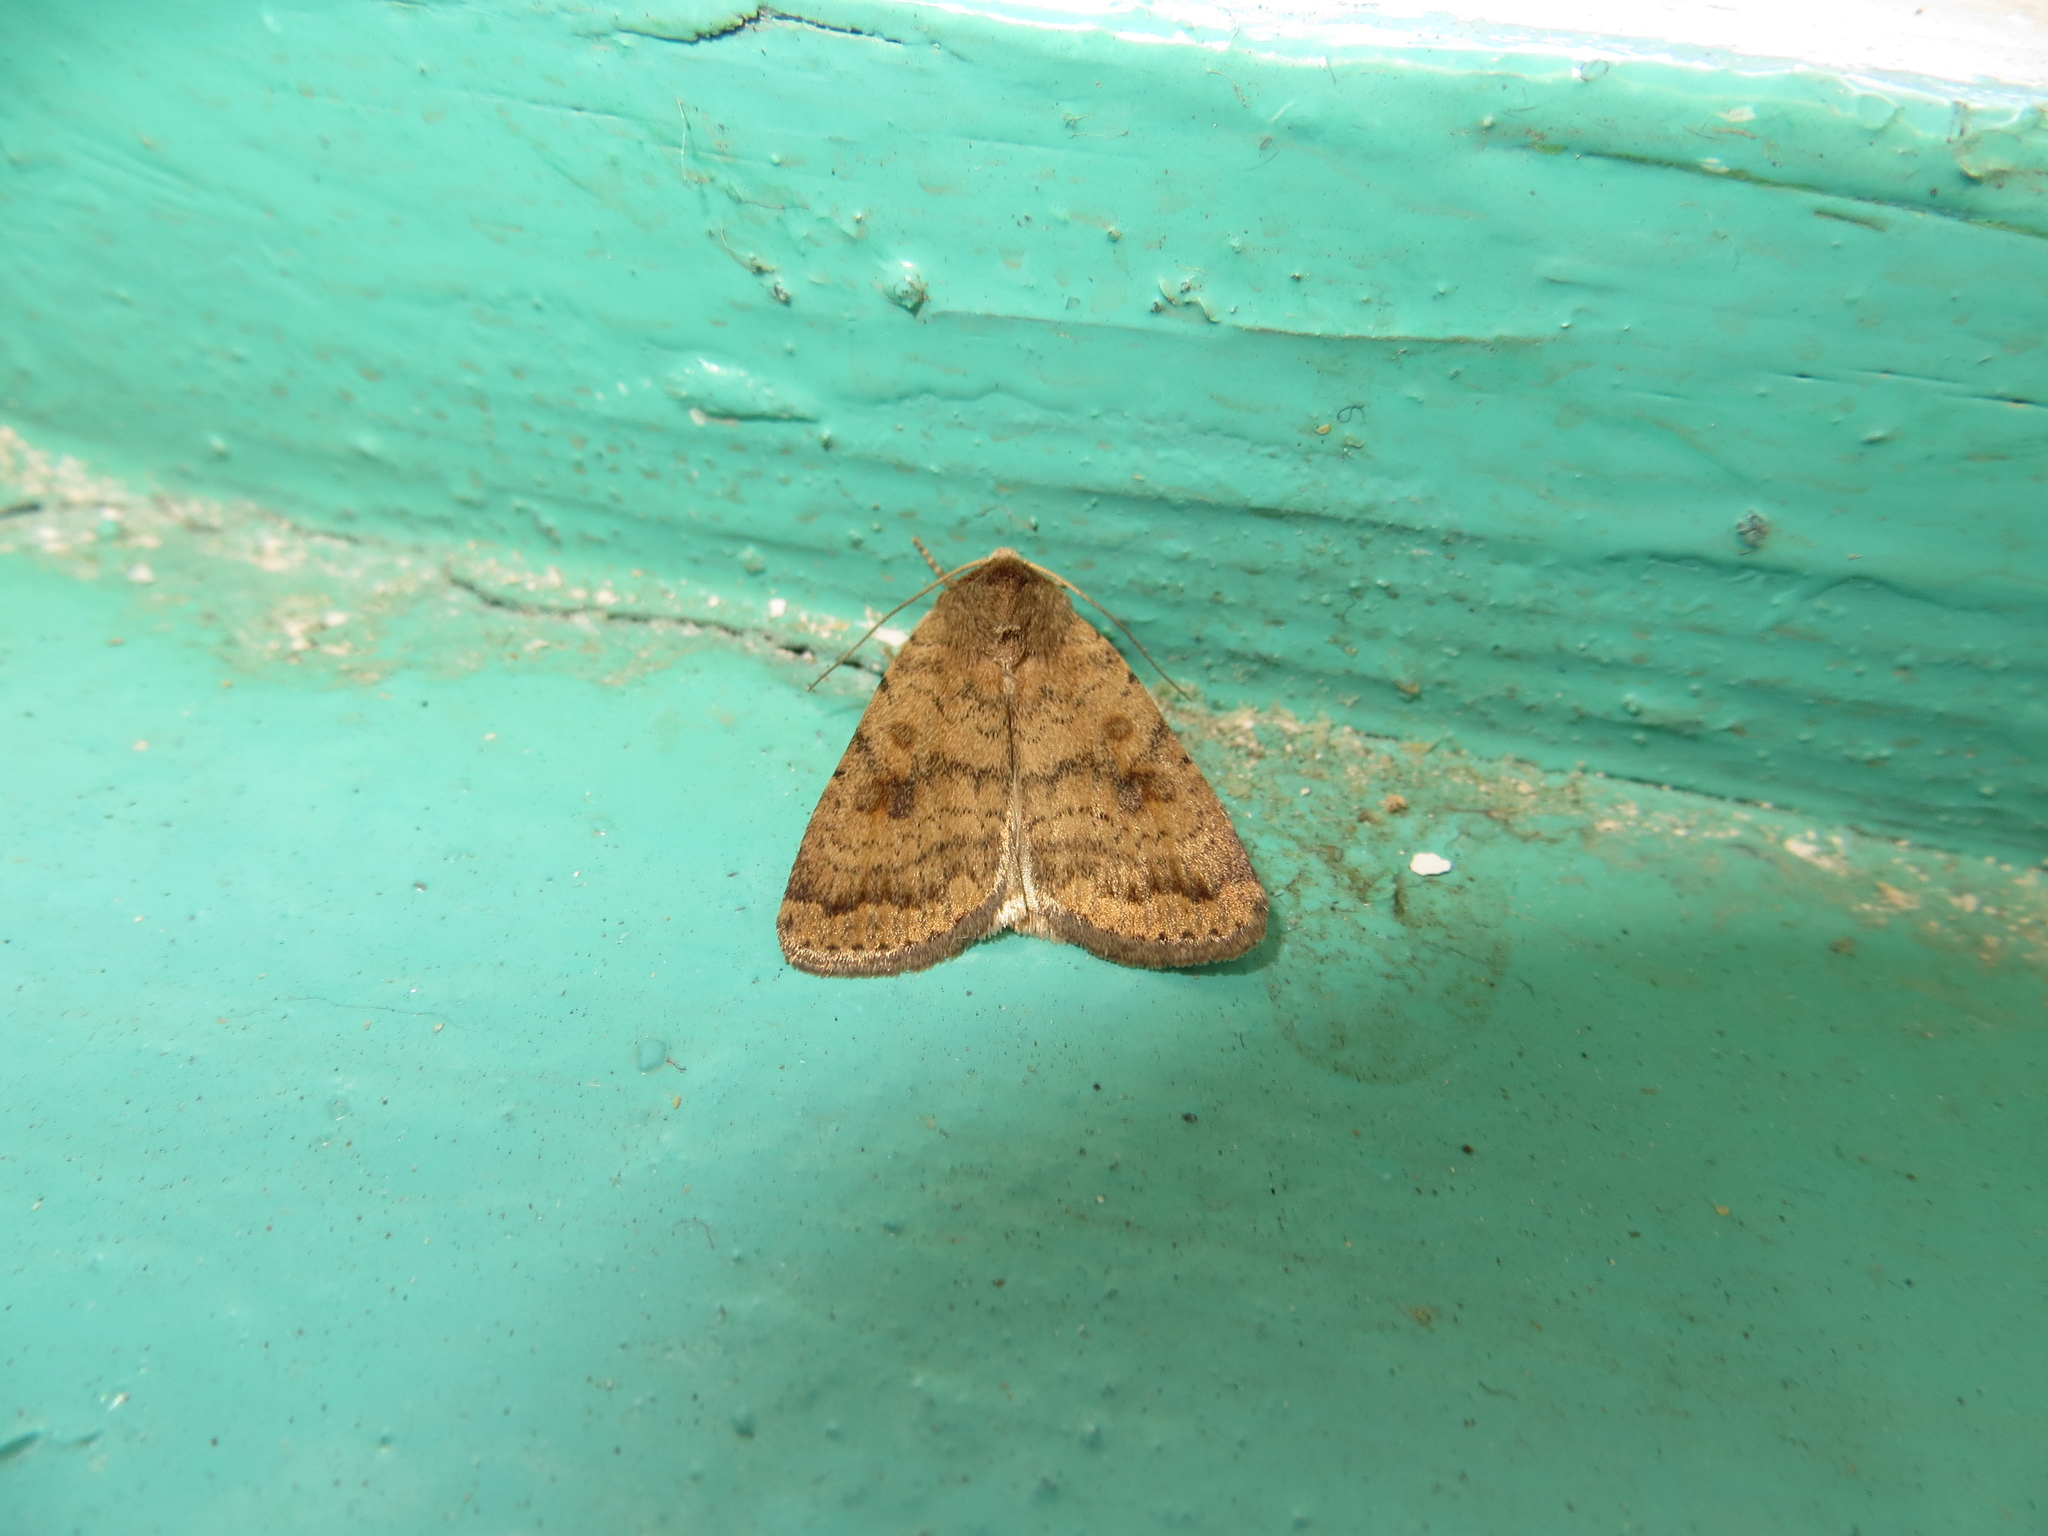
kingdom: Animalia
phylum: Arthropoda
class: Insecta
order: Lepidoptera
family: Noctuidae
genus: Caradrina
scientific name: Caradrina morpheus
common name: Mottled rustic
